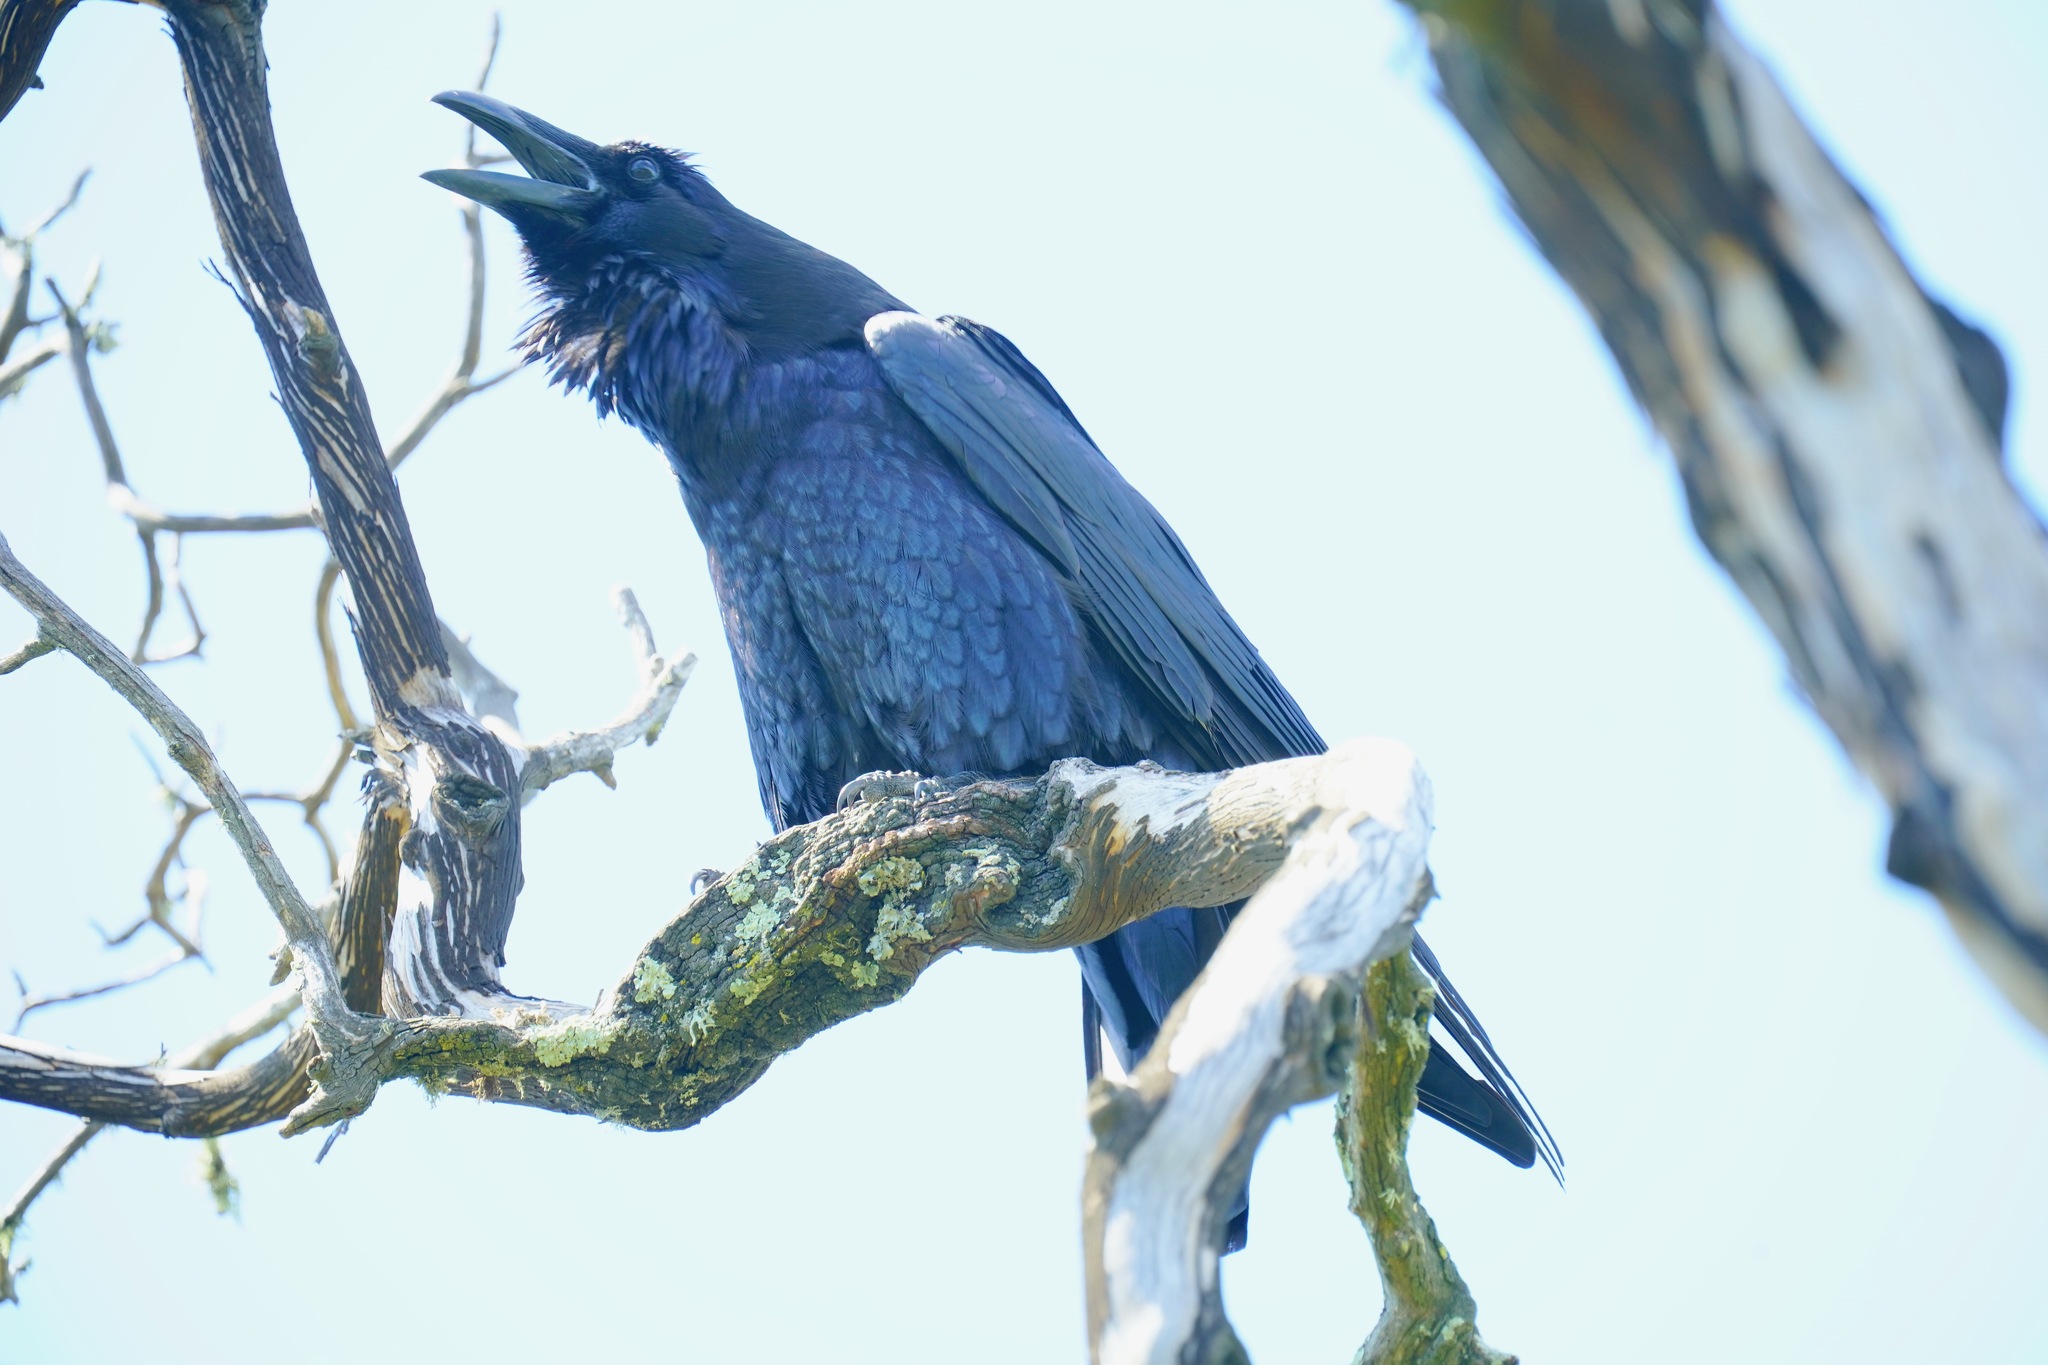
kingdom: Animalia
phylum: Chordata
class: Aves
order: Passeriformes
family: Corvidae
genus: Corvus
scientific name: Corvus corax
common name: Common raven
